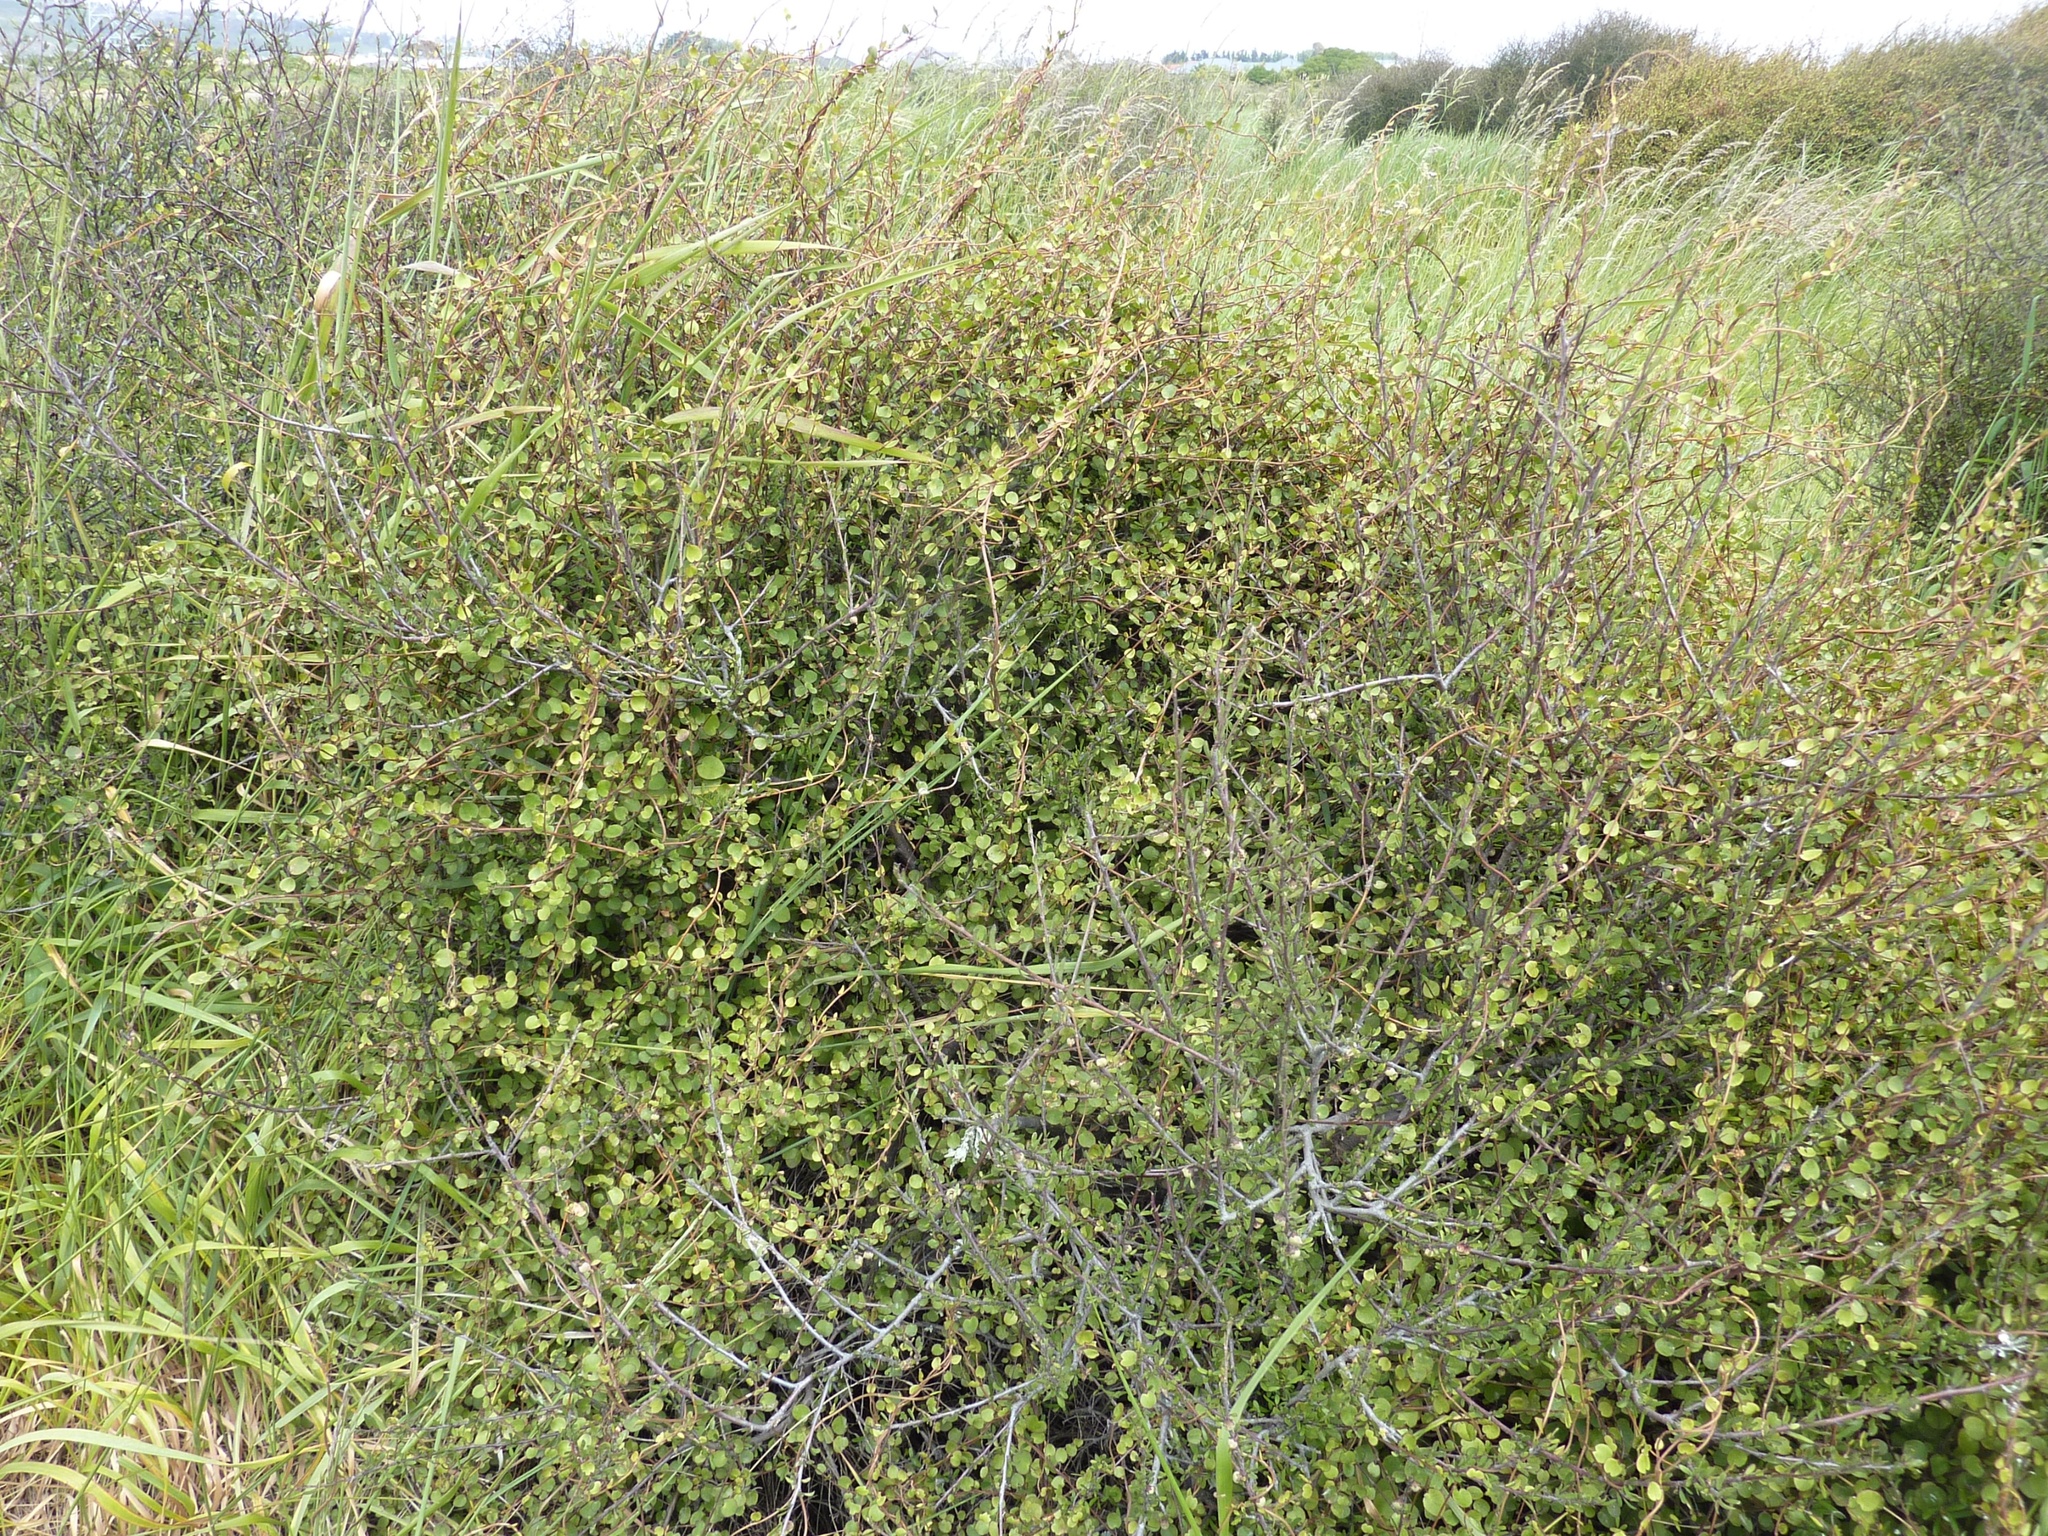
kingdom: Plantae
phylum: Tracheophyta
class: Magnoliopsida
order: Caryophyllales
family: Polygonaceae
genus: Muehlenbeckia
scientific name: Muehlenbeckia complexa
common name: Wireplant
